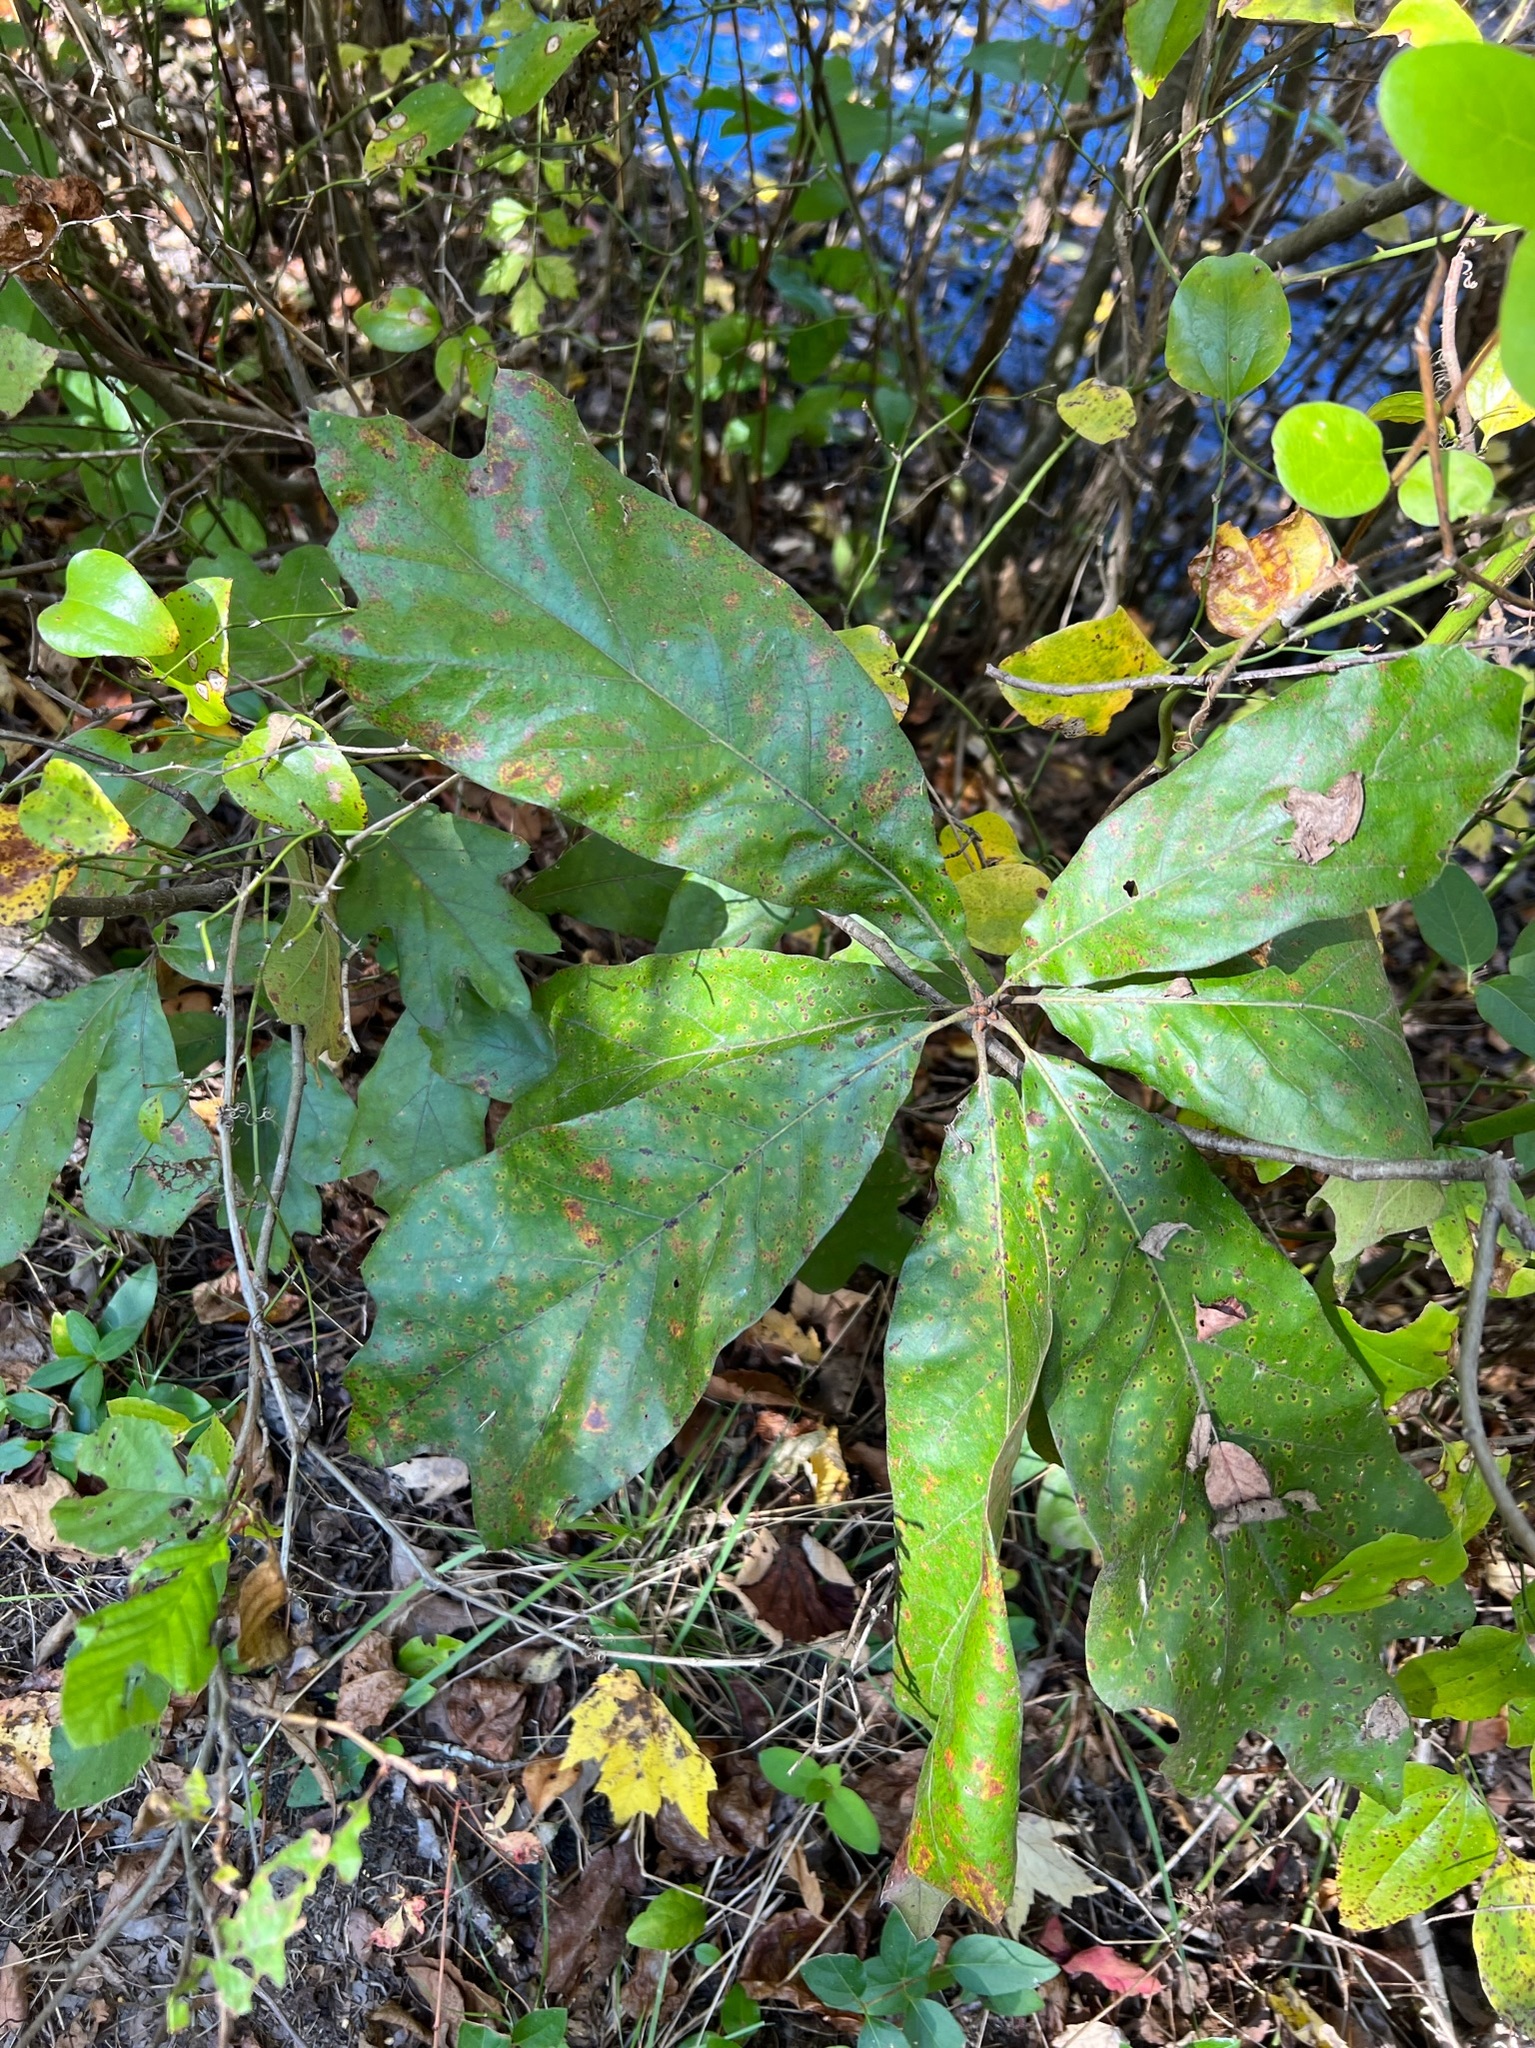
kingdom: Plantae
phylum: Tracheophyta
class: Magnoliopsida
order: Fagales
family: Fagaceae
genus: Quercus
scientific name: Quercus falcata
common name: Southern red oak
